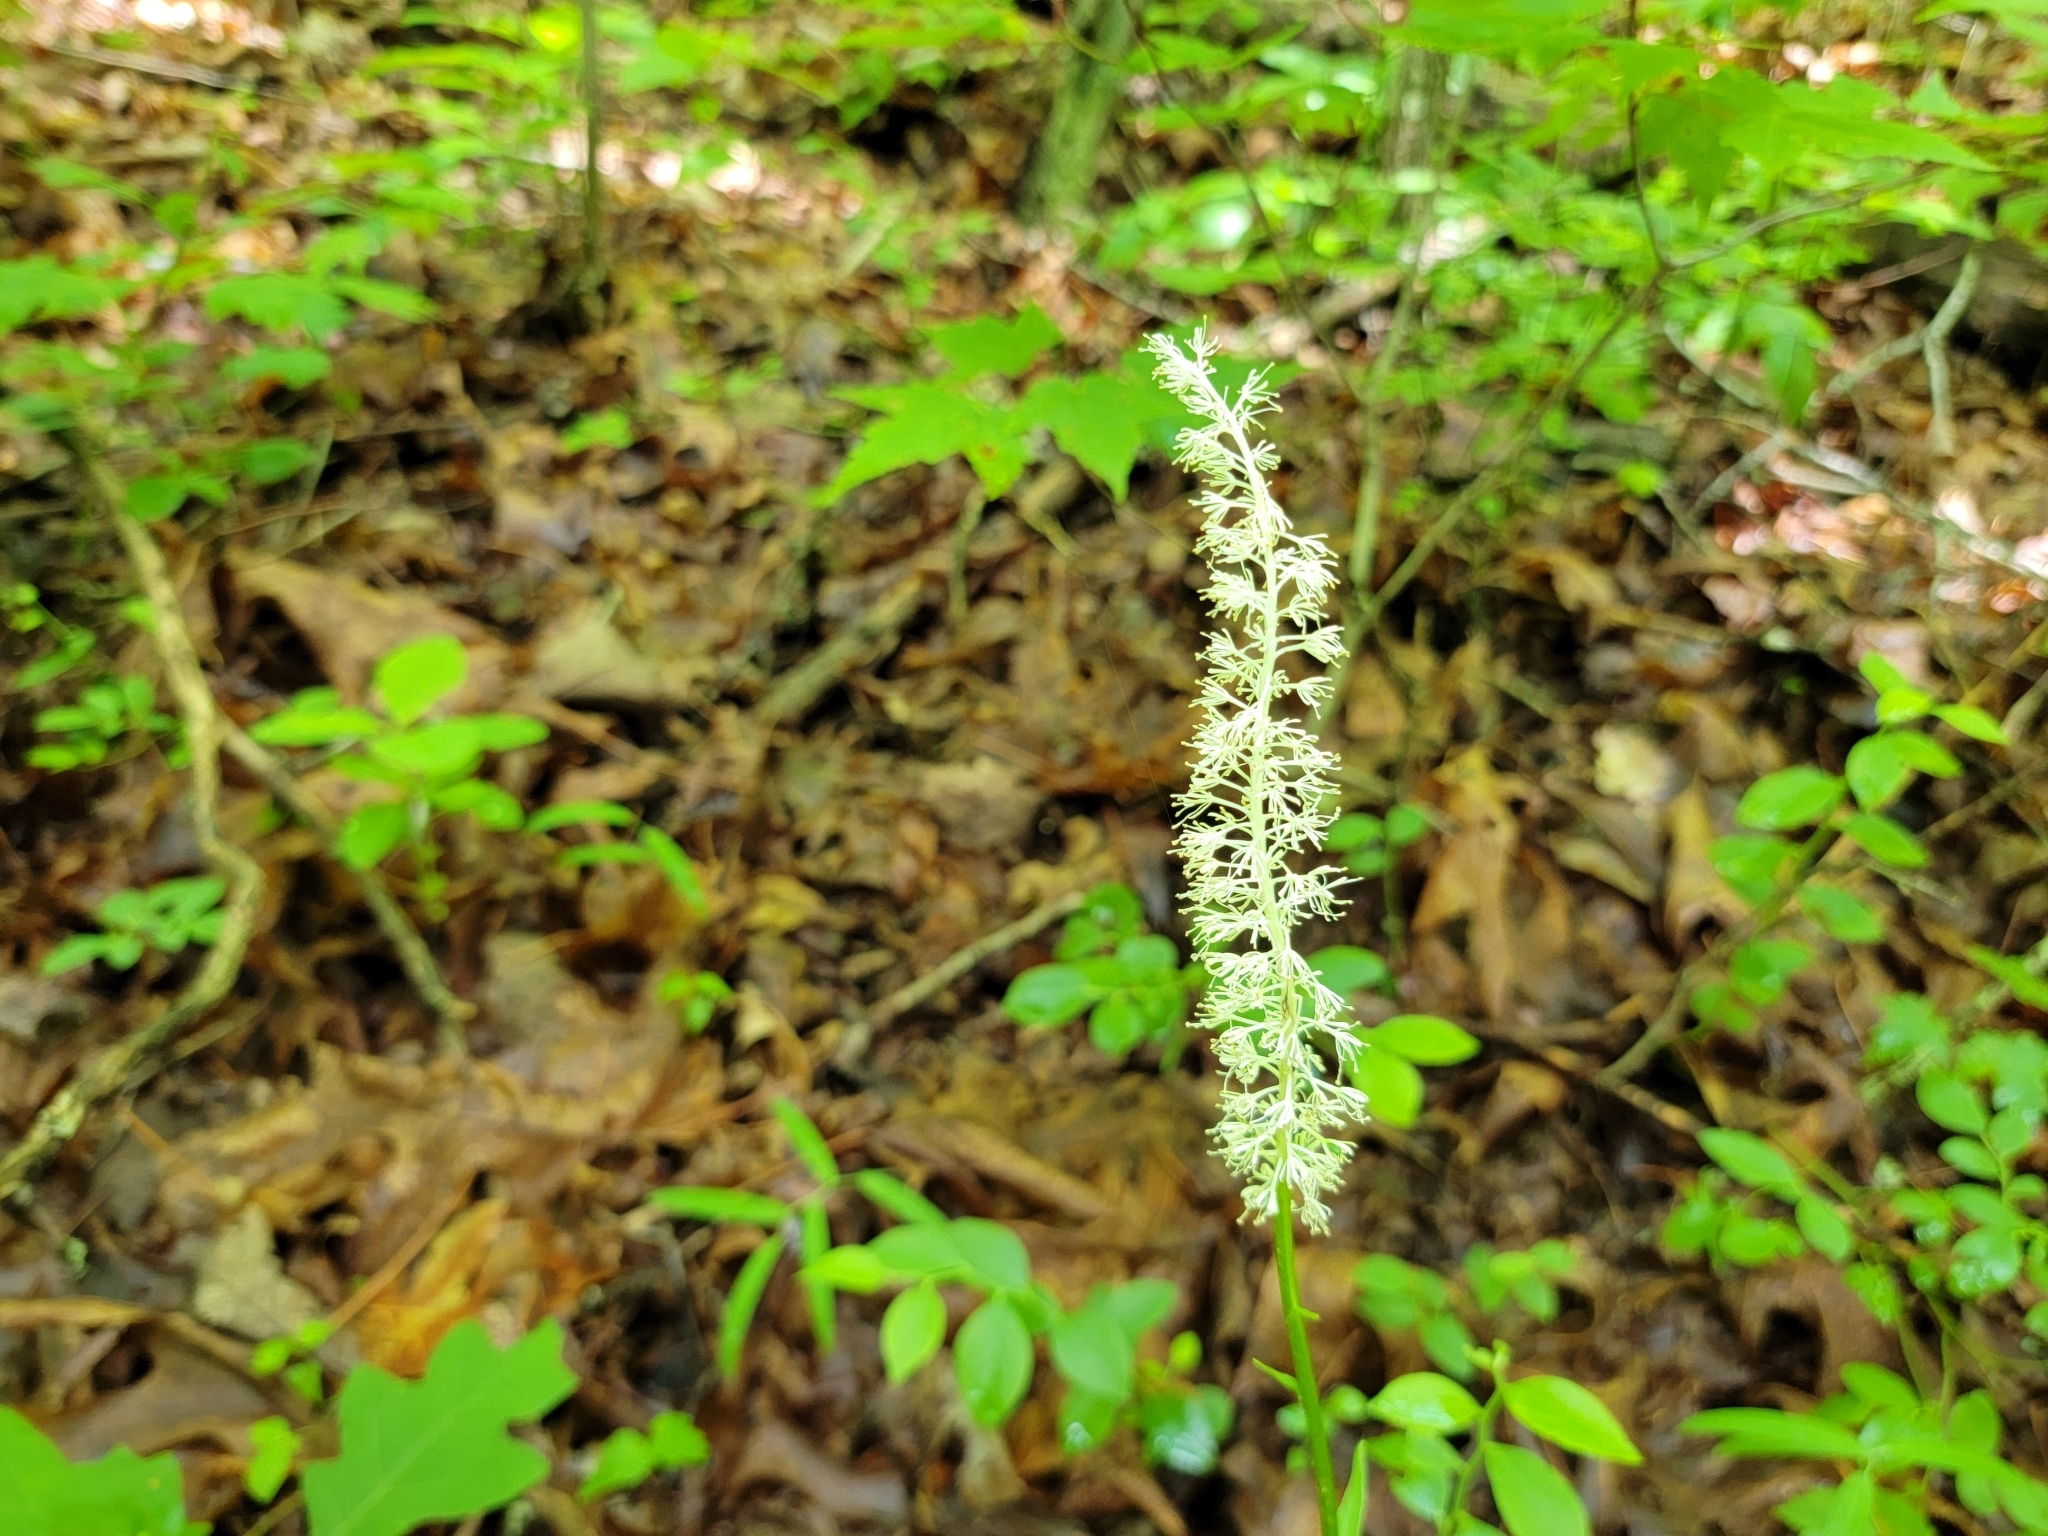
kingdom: Plantae
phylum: Tracheophyta
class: Liliopsida
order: Liliales
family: Melanthiaceae
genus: Chamaelirium
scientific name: Chamaelirium luteum
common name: Fairy-wand
